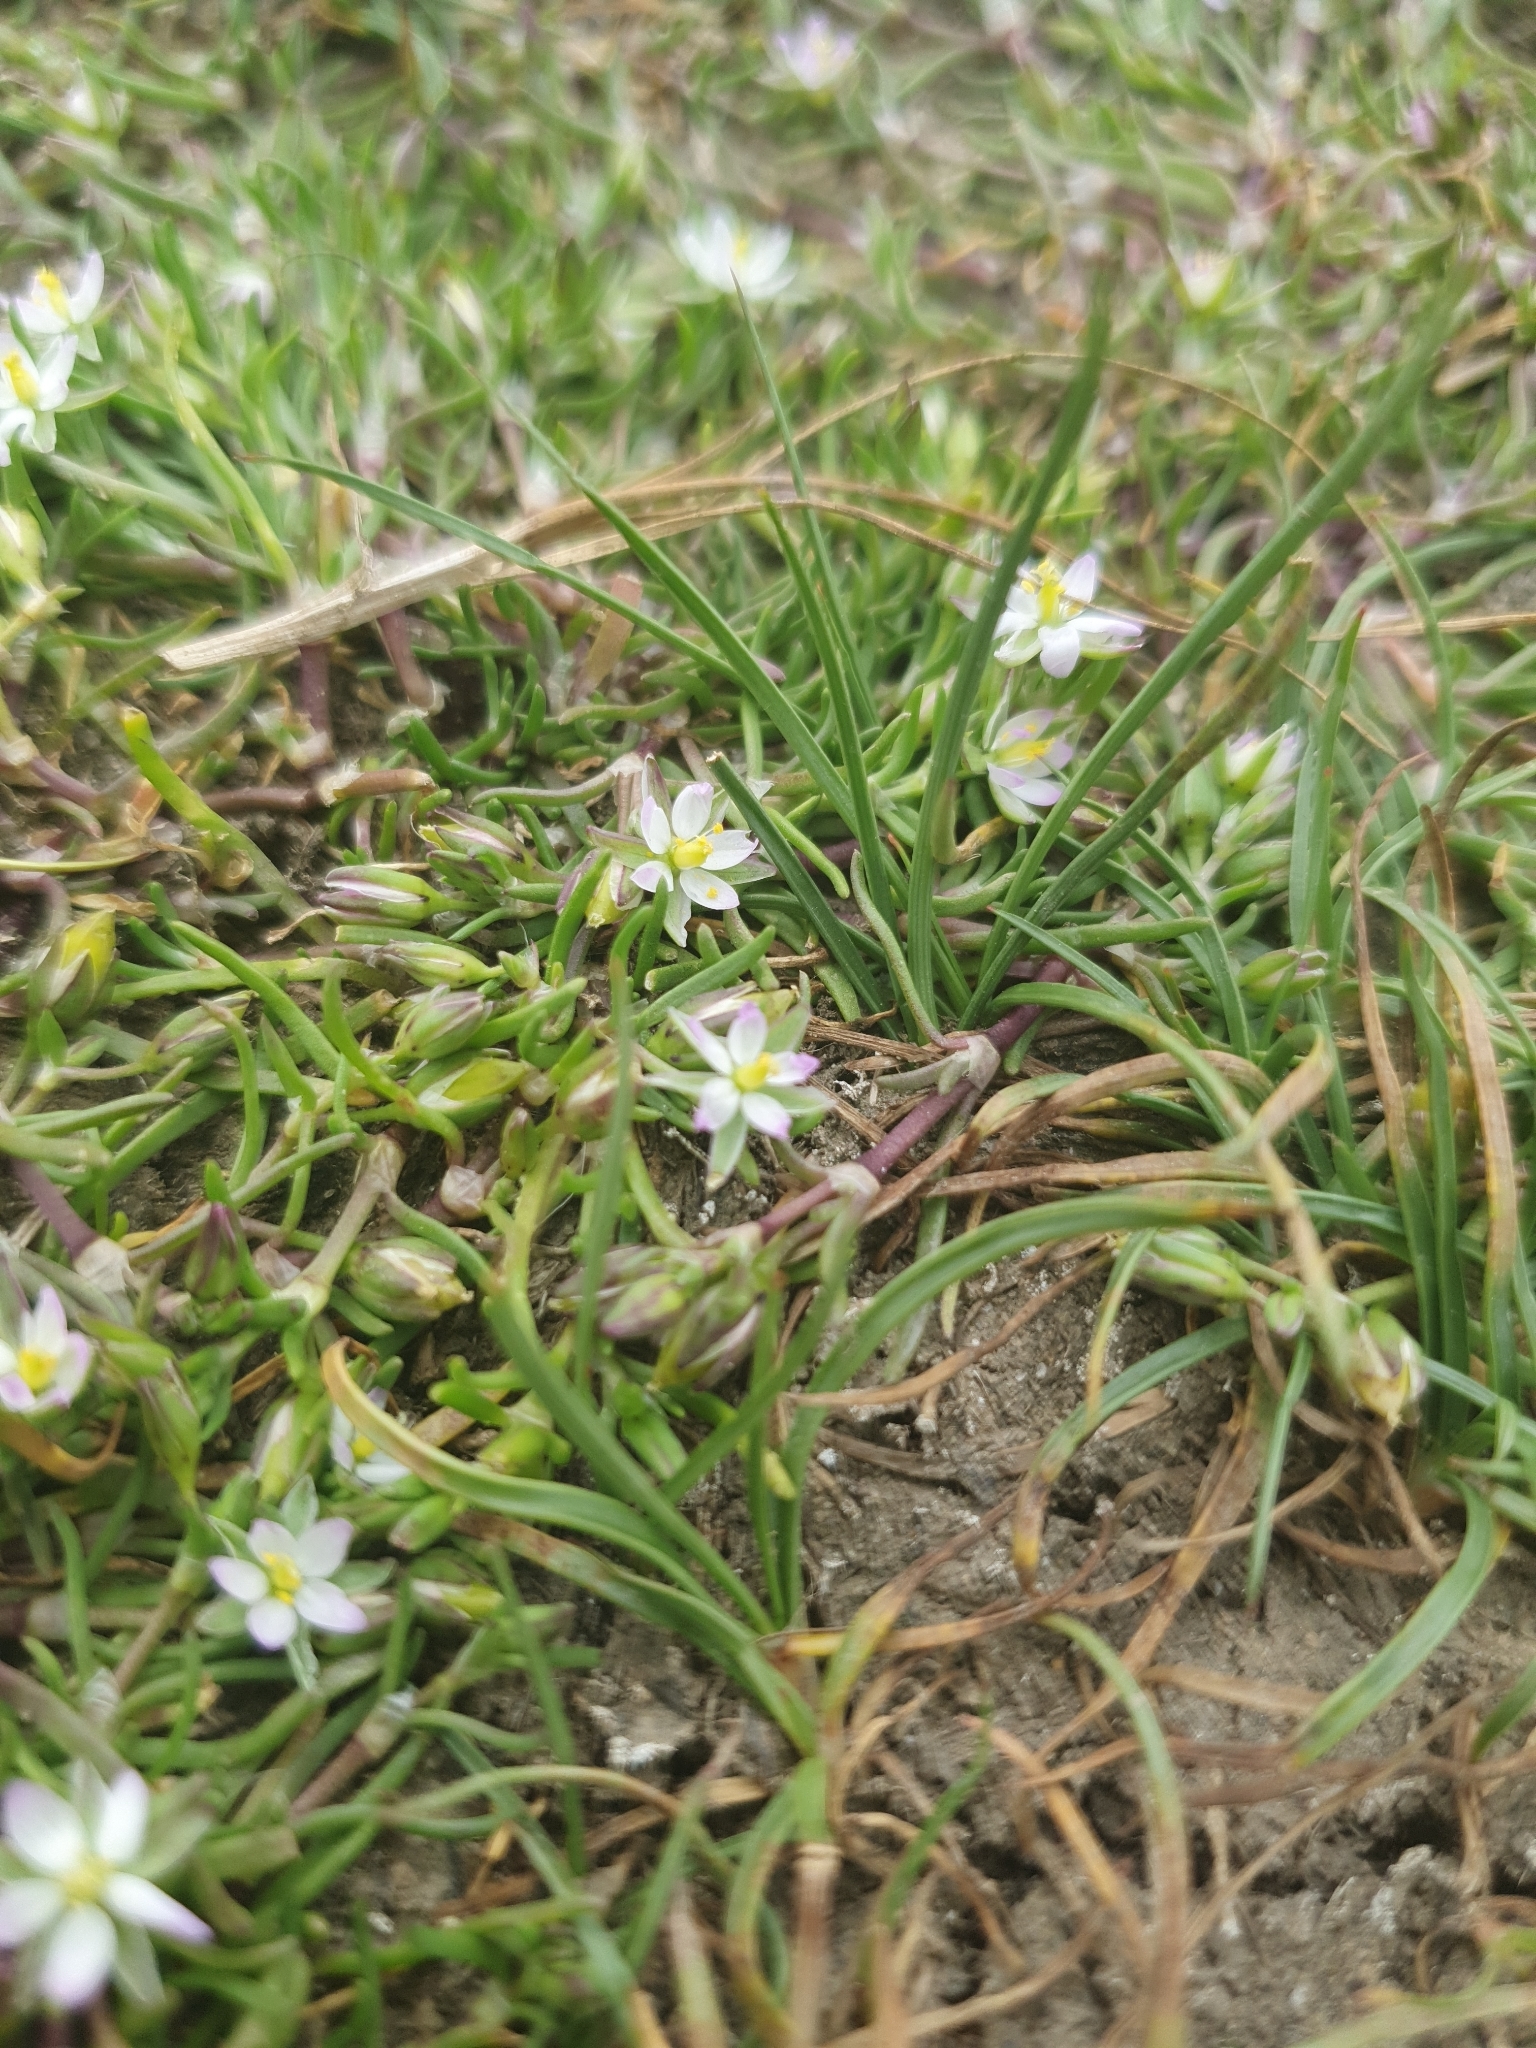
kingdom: Plantae
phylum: Tracheophyta
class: Magnoliopsida
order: Caryophyllales
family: Caryophyllaceae
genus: Spergularia
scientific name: Spergularia marina
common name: Lesser sea-spurrey
